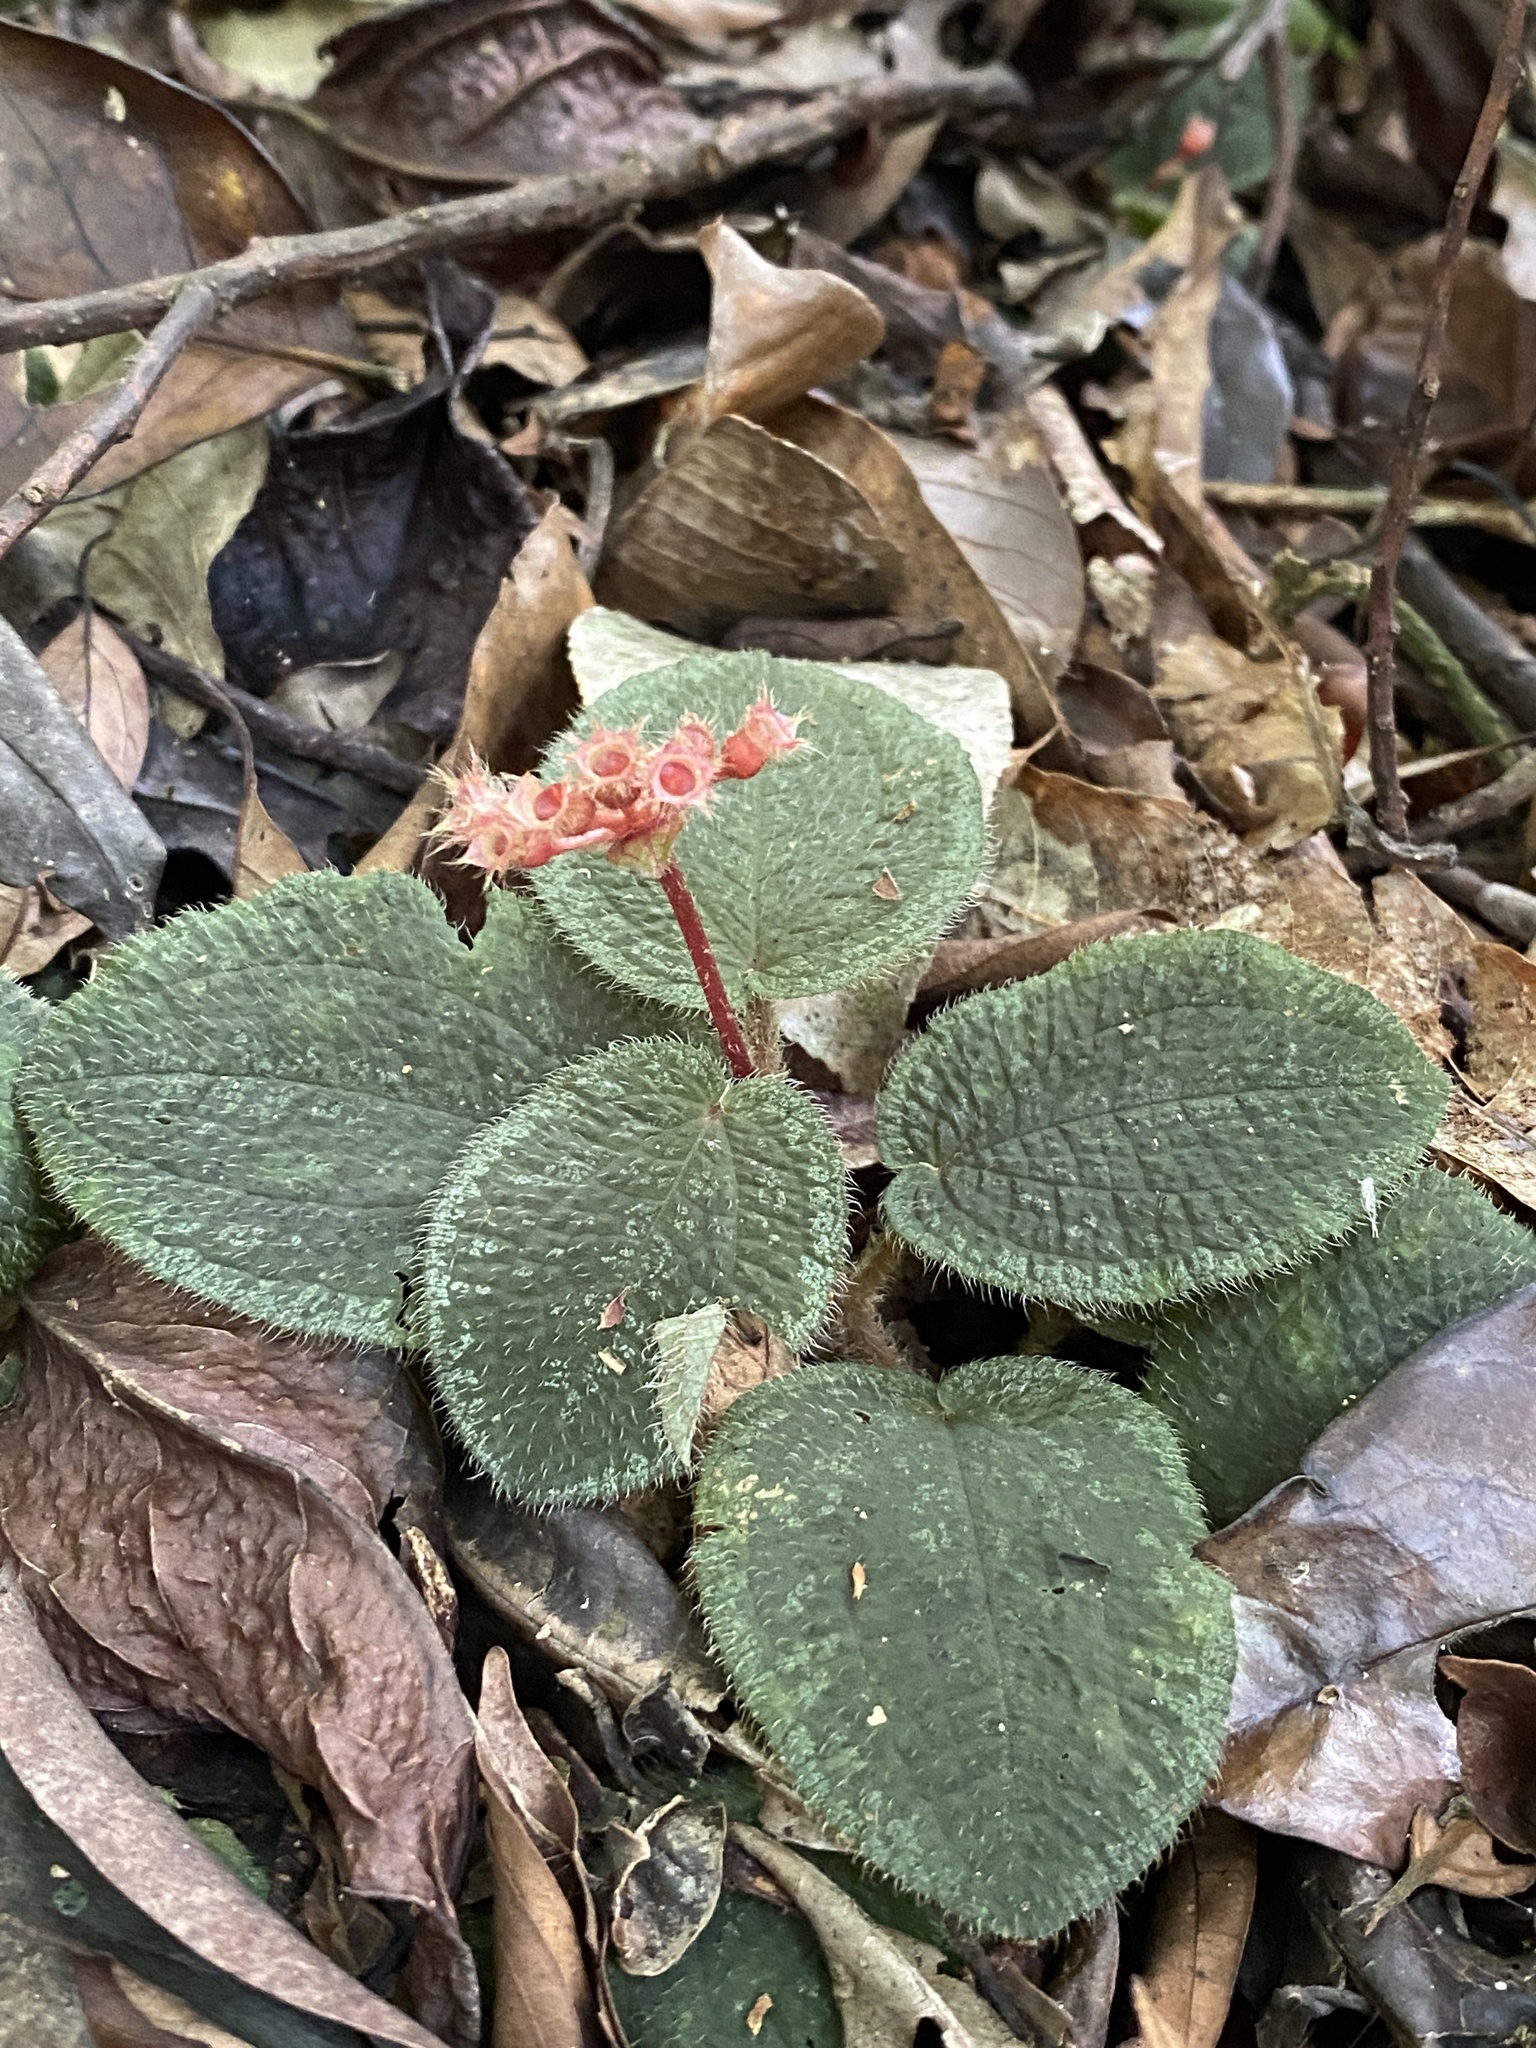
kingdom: Plantae
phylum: Tracheophyta
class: Magnoliopsida
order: Myrtales
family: Melastomataceae
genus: Nephoanthus
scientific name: Nephoanthus prostratus
